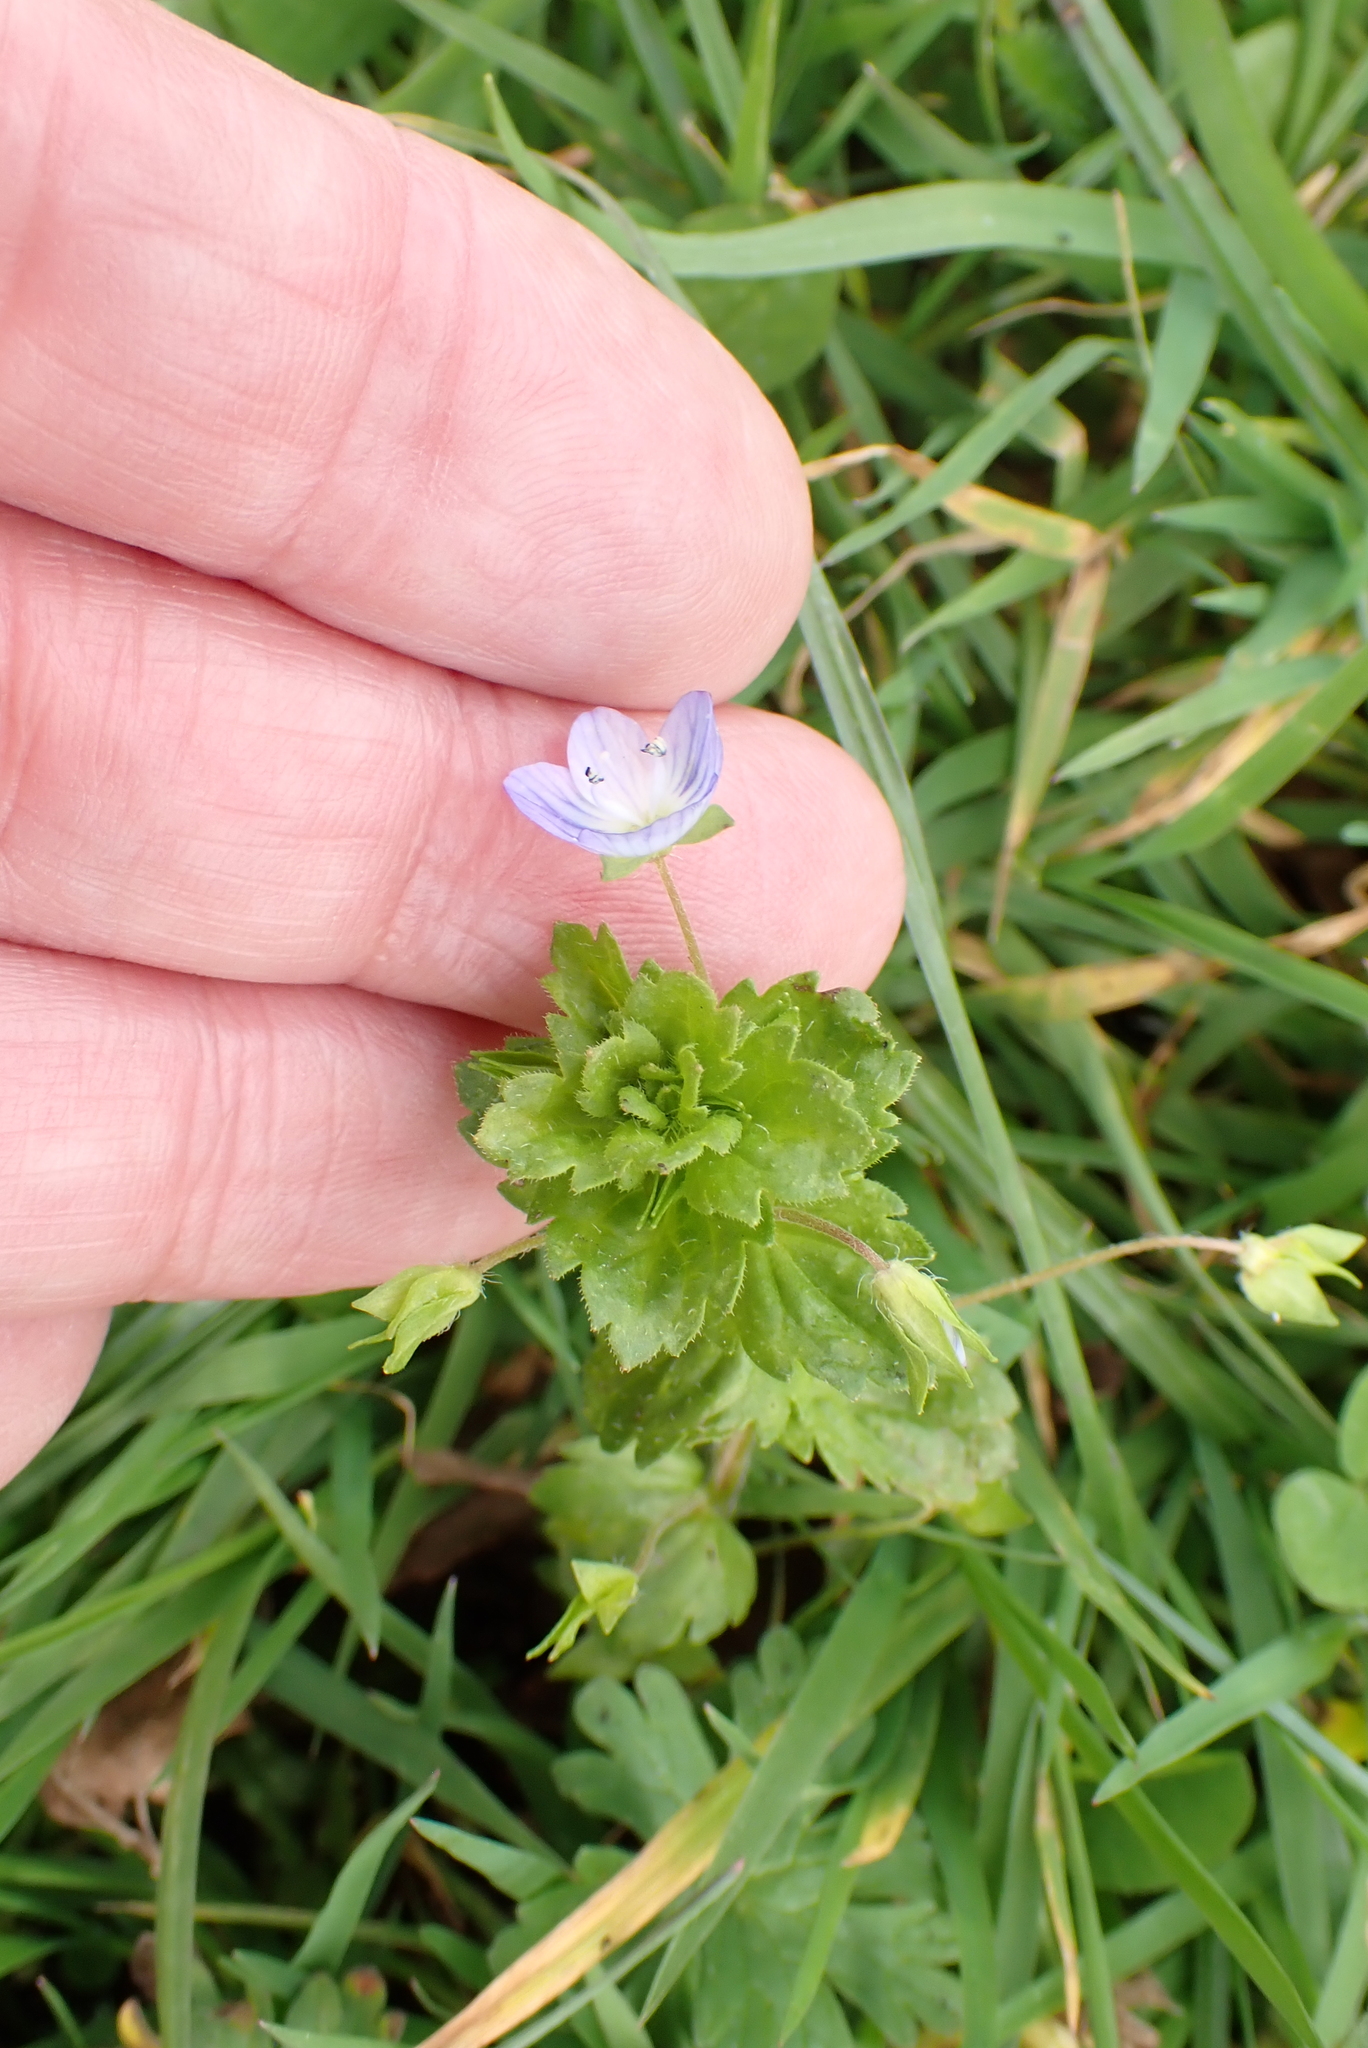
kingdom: Plantae
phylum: Tracheophyta
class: Magnoliopsida
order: Lamiales
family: Plantaginaceae
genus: Veronica
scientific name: Veronica persica
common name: Common field-speedwell
